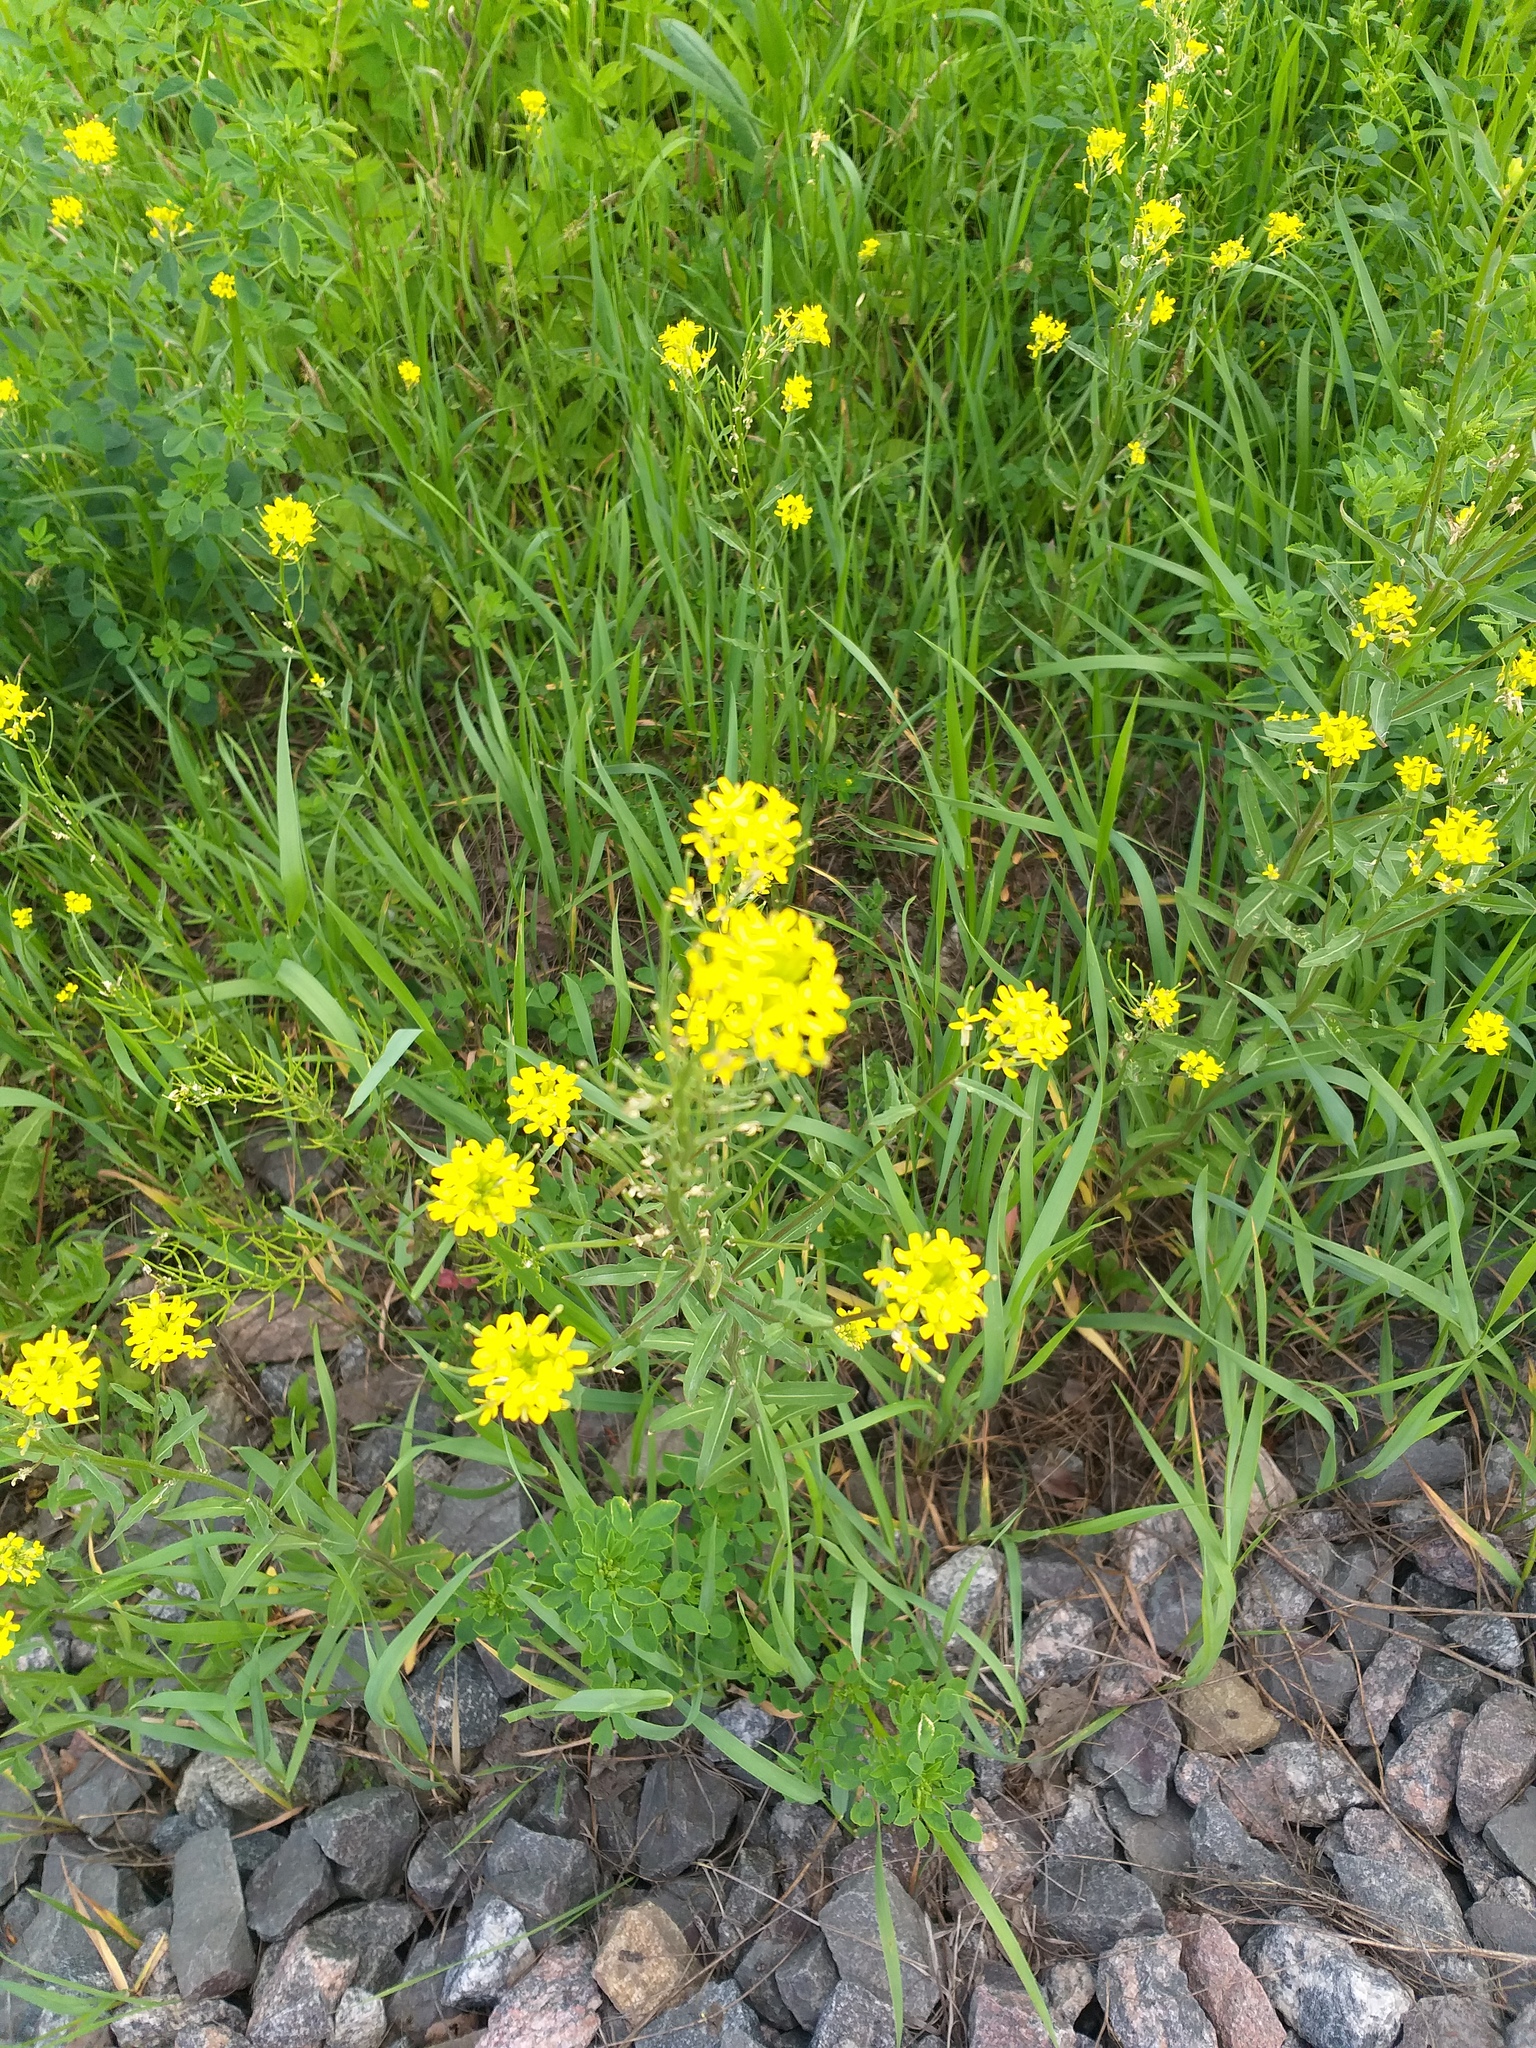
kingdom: Plantae
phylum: Tracheophyta
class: Magnoliopsida
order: Brassicales
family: Brassicaceae
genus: Erysimum
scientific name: Erysimum hieraciifolium
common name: European wallflower
